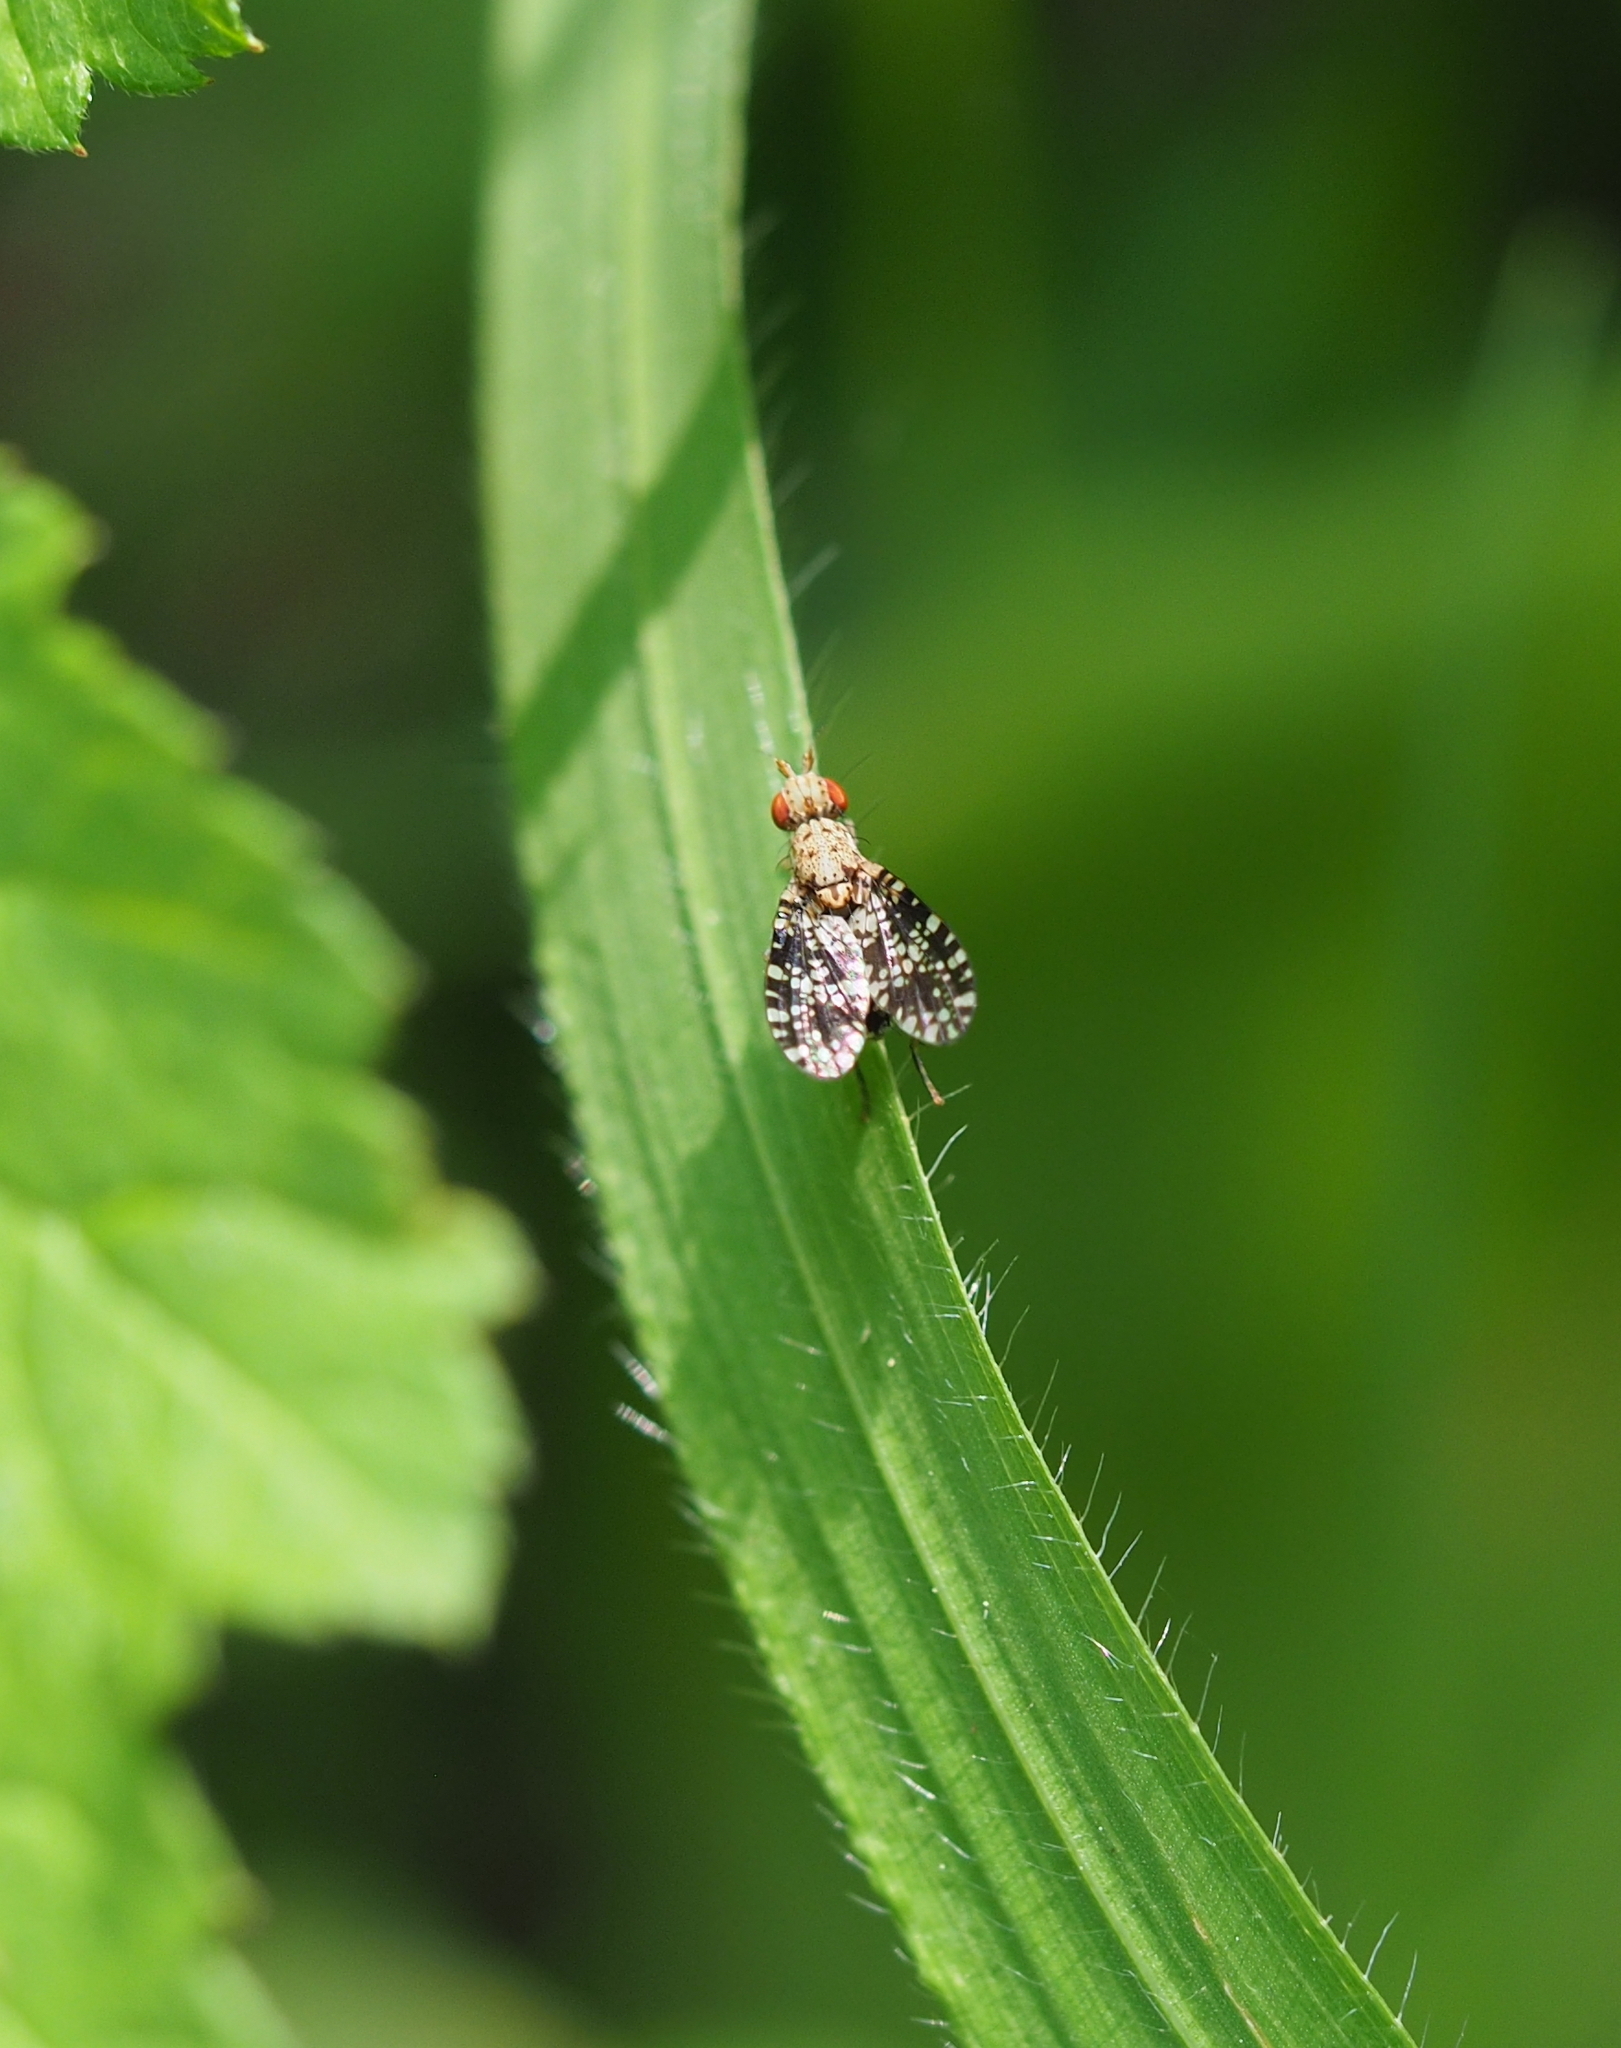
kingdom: Animalia
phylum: Arthropoda
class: Insecta
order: Diptera
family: Sciomyzidae
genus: Trypetoptera
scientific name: Trypetoptera punctulata
